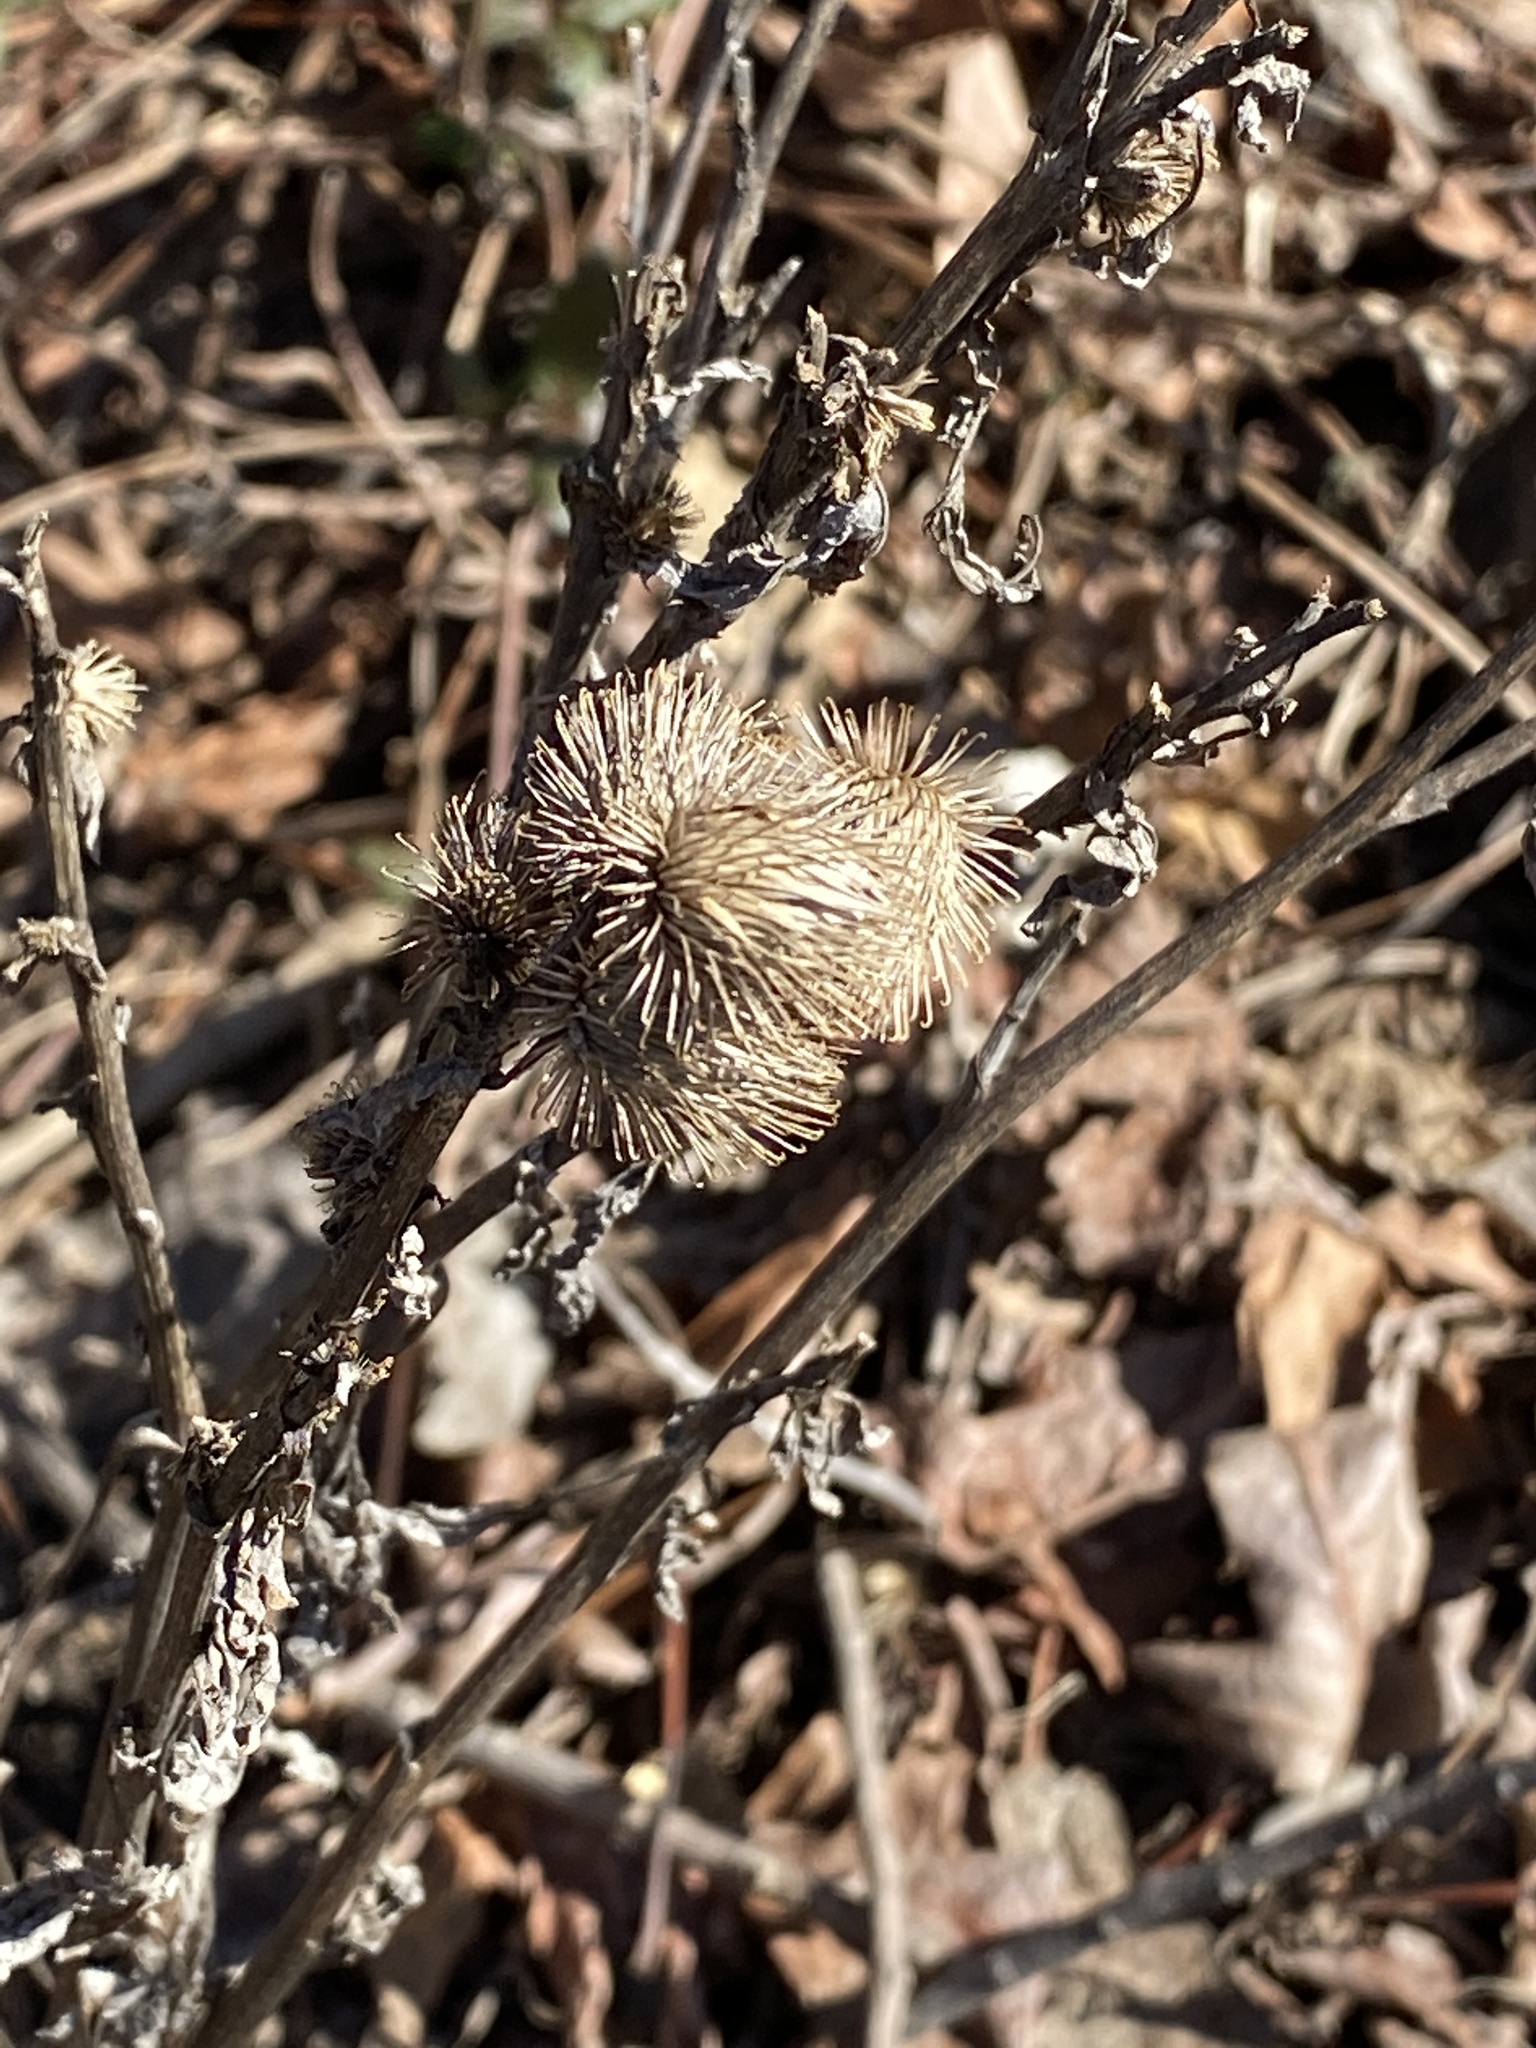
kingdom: Plantae
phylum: Tracheophyta
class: Magnoliopsida
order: Asterales
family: Asteraceae
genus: Arctium
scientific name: Arctium minus
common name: Lesser burdock
